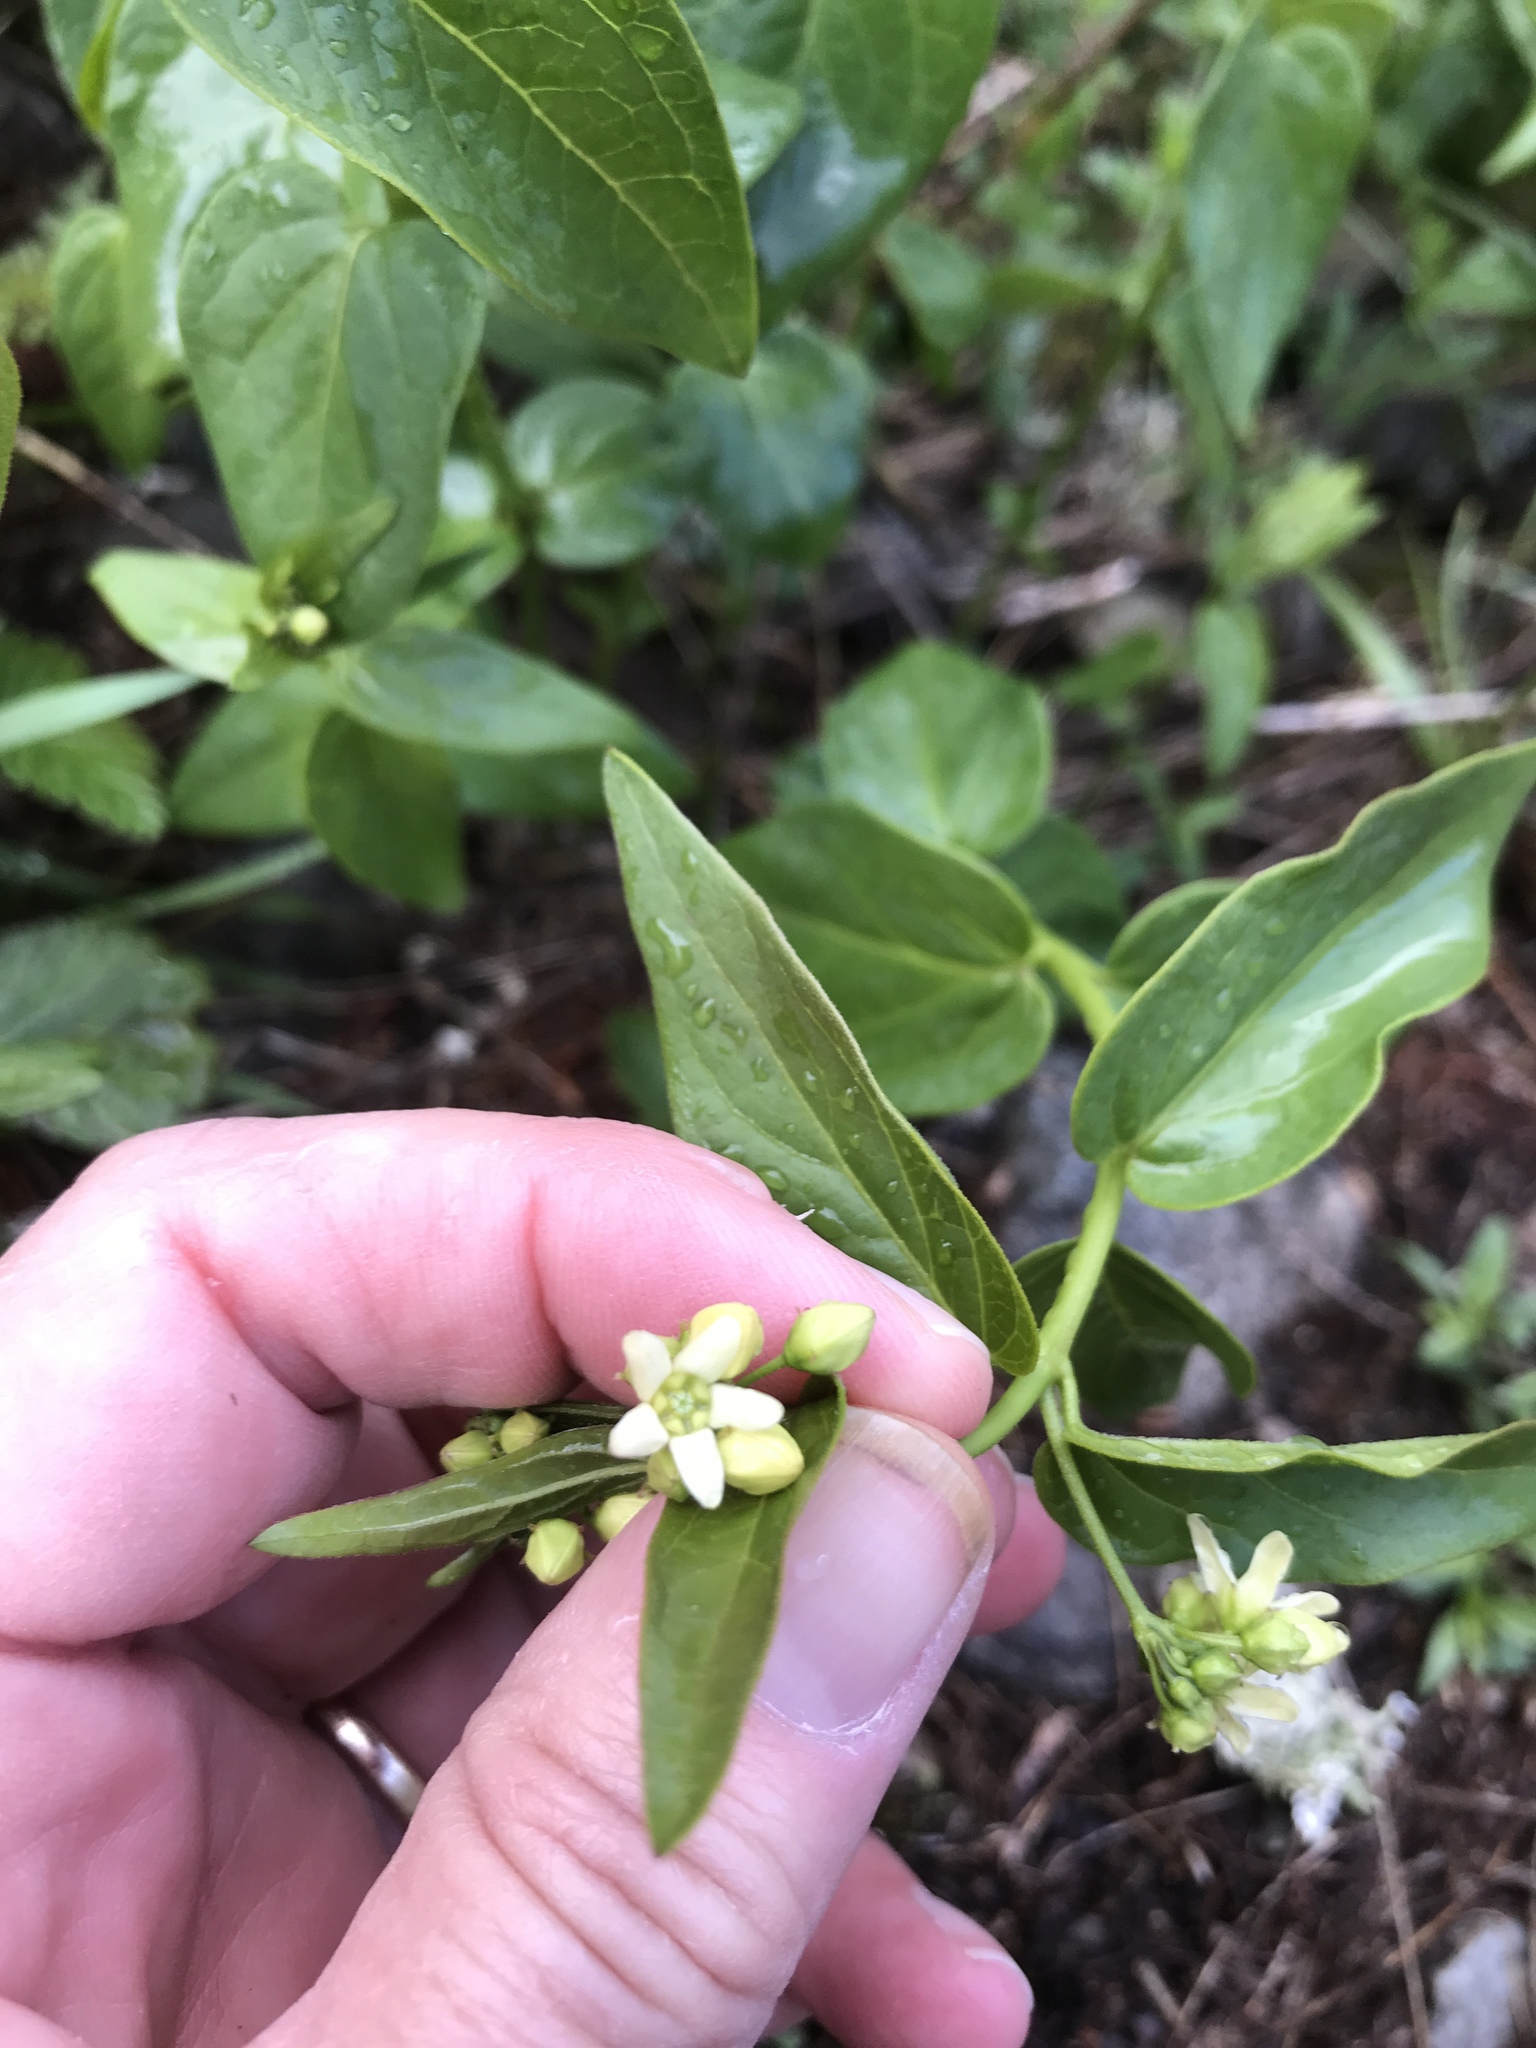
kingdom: Plantae
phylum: Tracheophyta
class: Magnoliopsida
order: Gentianales
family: Apocynaceae
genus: Vincetoxicum
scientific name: Vincetoxicum hirundinaria
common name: White swallowwort
